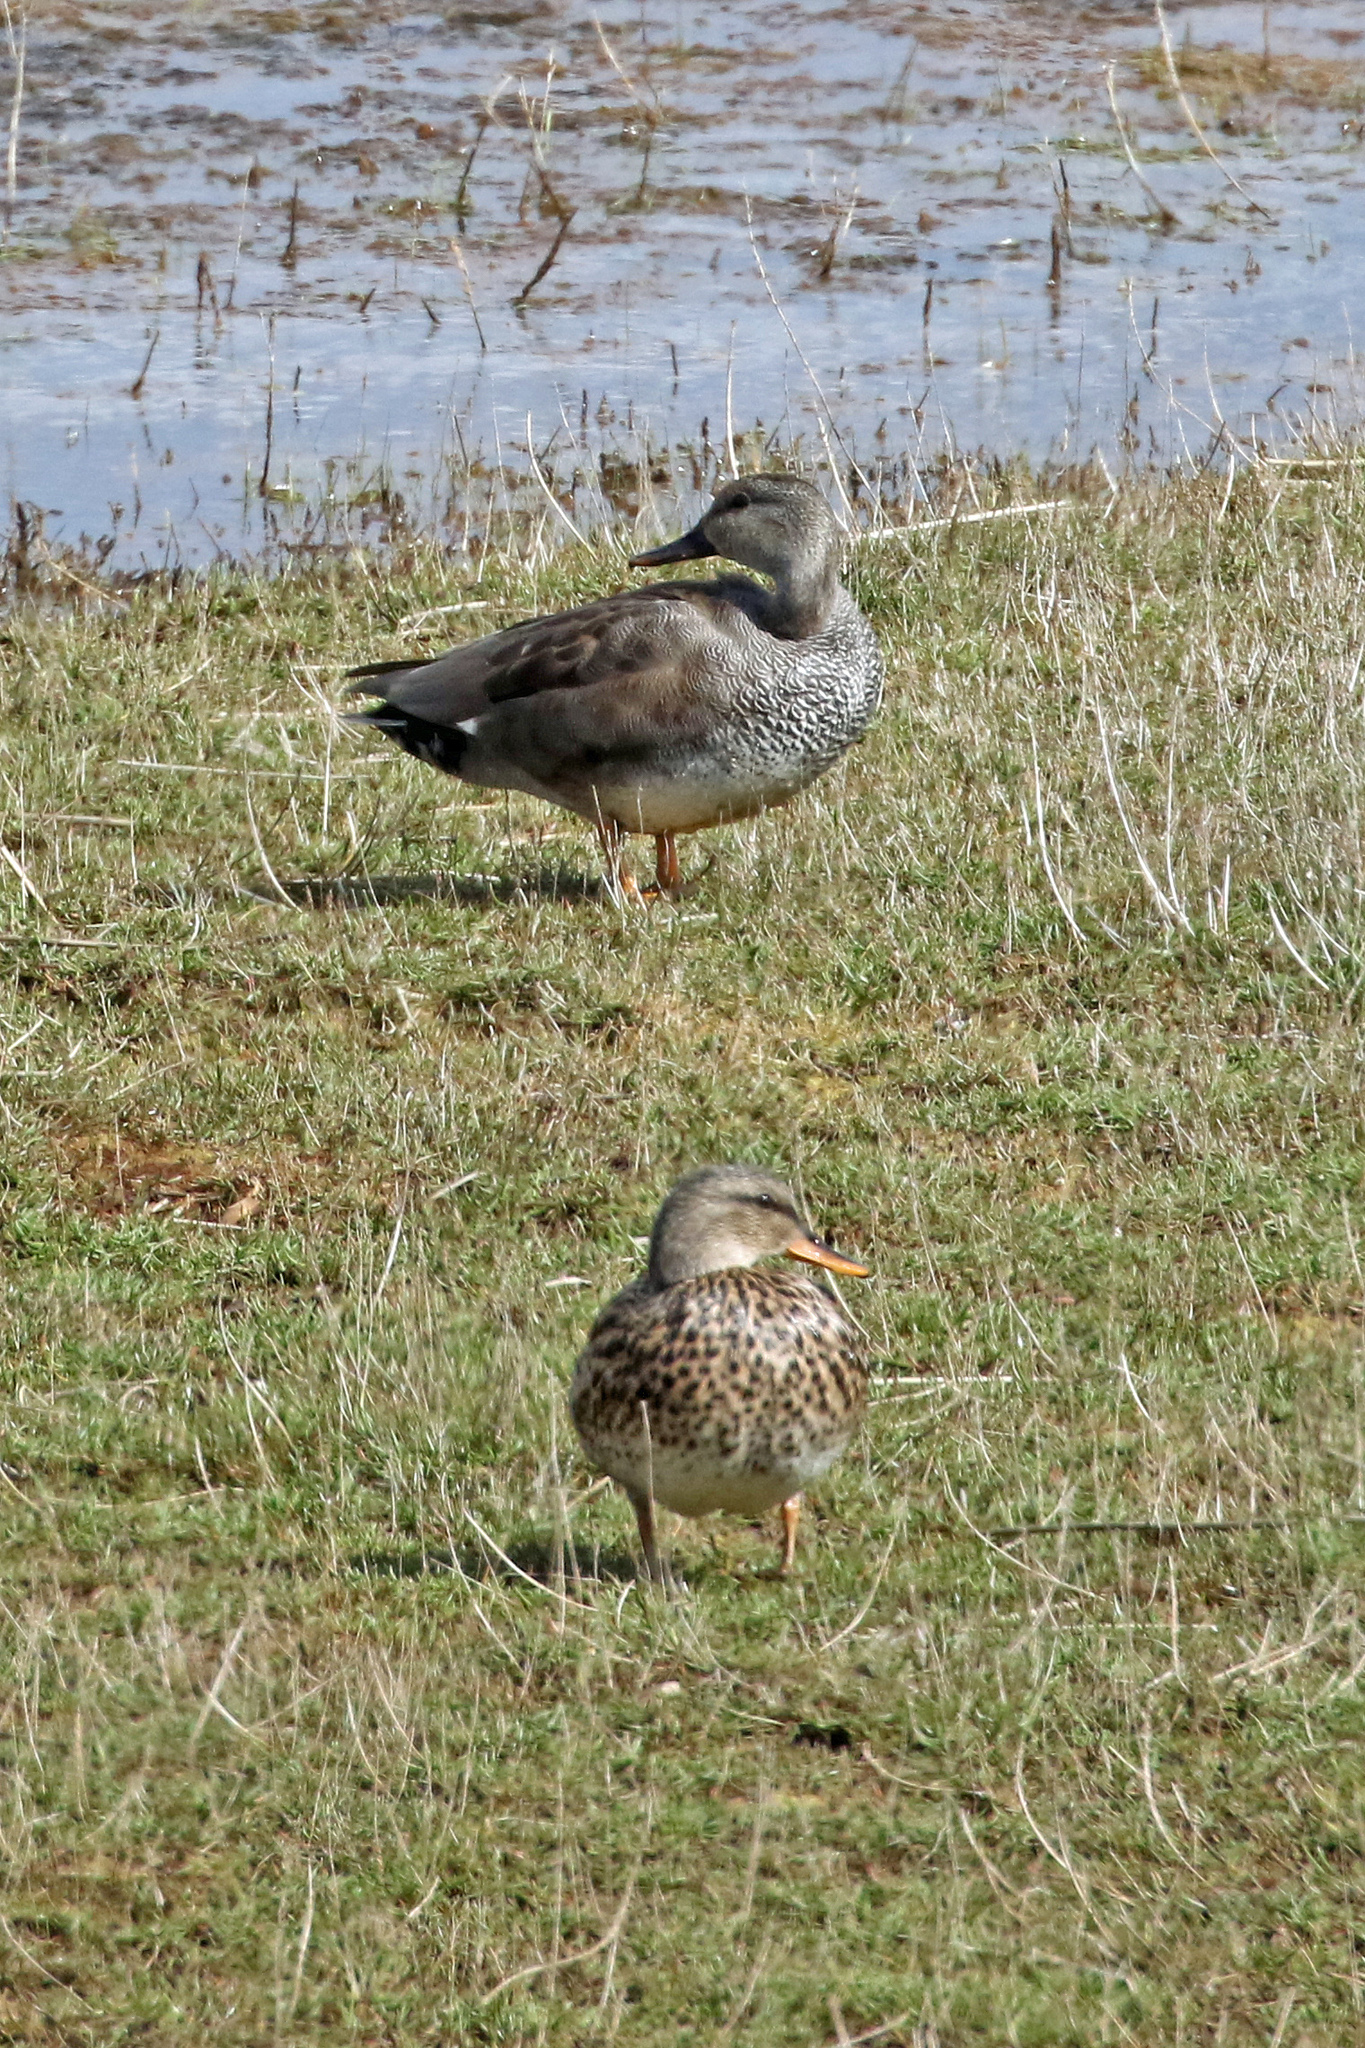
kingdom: Animalia
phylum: Chordata
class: Aves
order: Anseriformes
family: Anatidae
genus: Mareca
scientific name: Mareca strepera
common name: Gadwall
